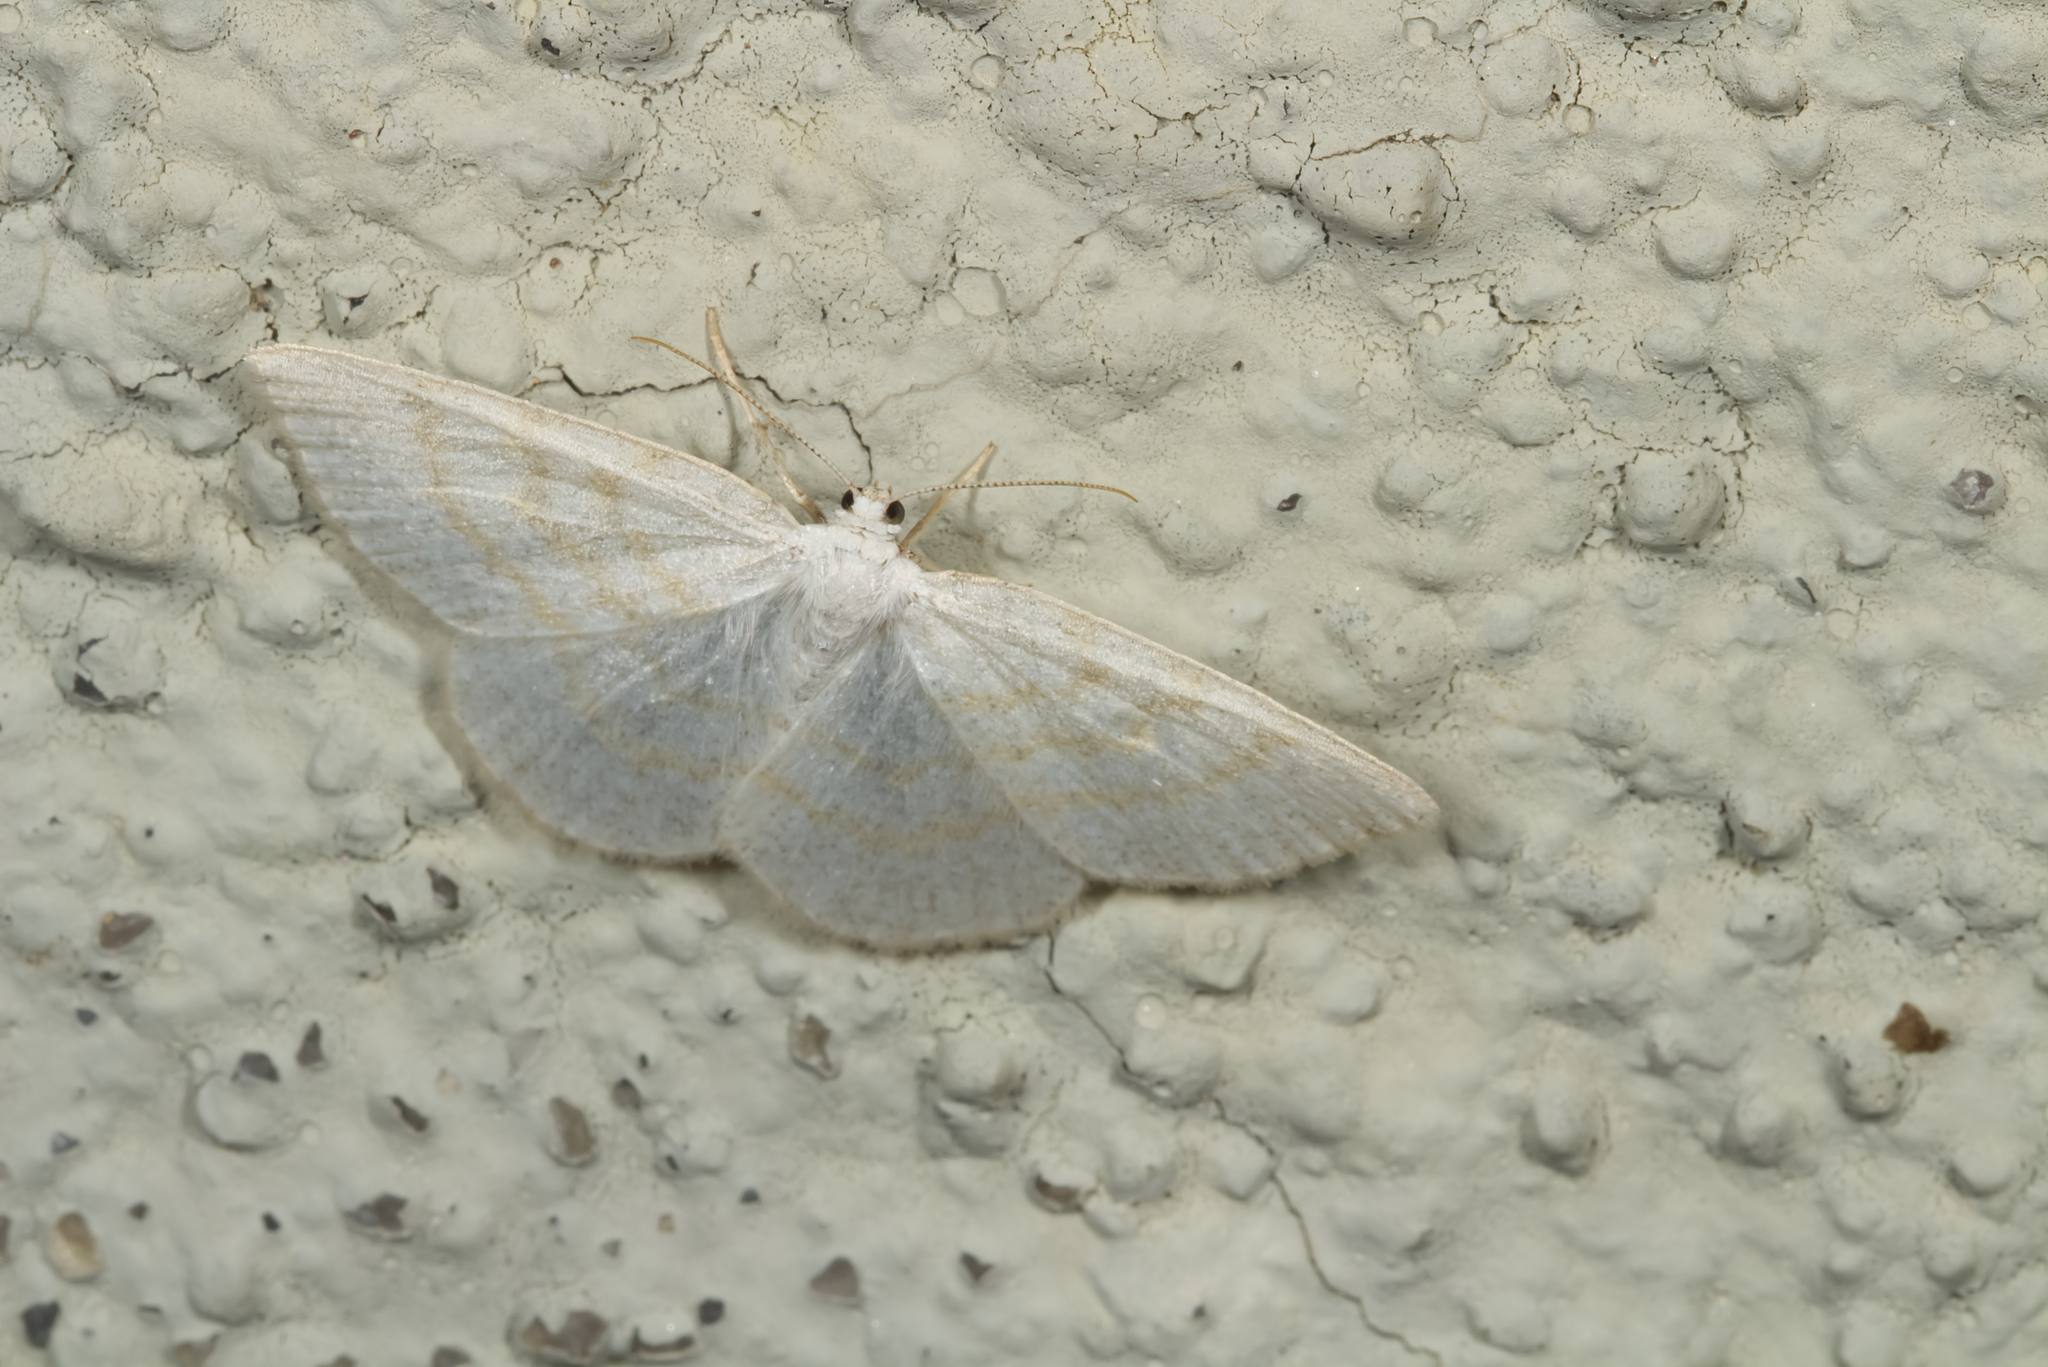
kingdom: Animalia
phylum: Arthropoda
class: Insecta
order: Lepidoptera
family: Geometridae
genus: Cabera
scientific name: Cabera exanthemata
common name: Common wave
